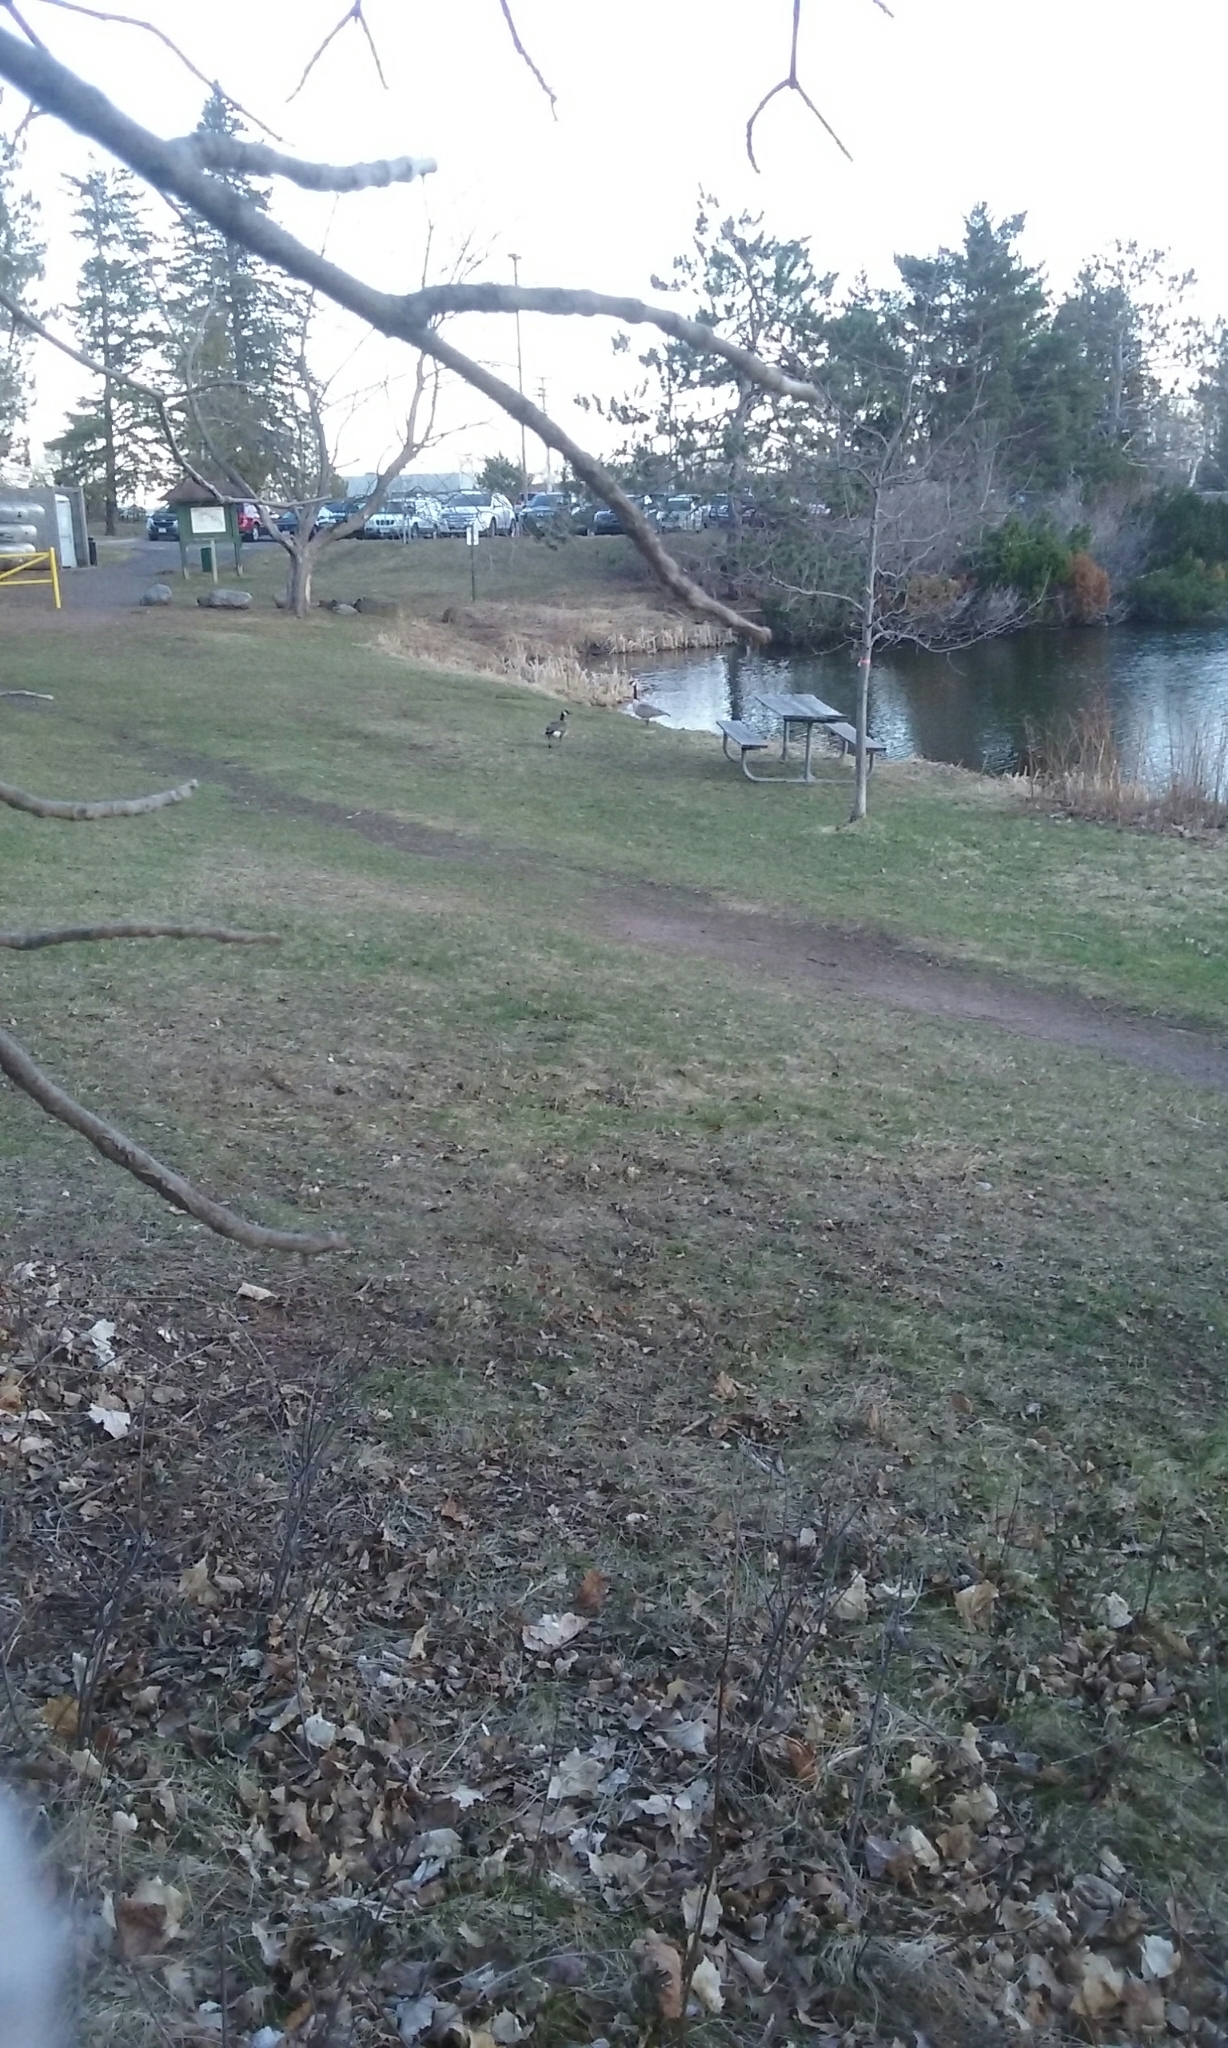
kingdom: Animalia
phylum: Chordata
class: Aves
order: Anseriformes
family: Anatidae
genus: Branta
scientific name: Branta canadensis
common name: Canada goose
